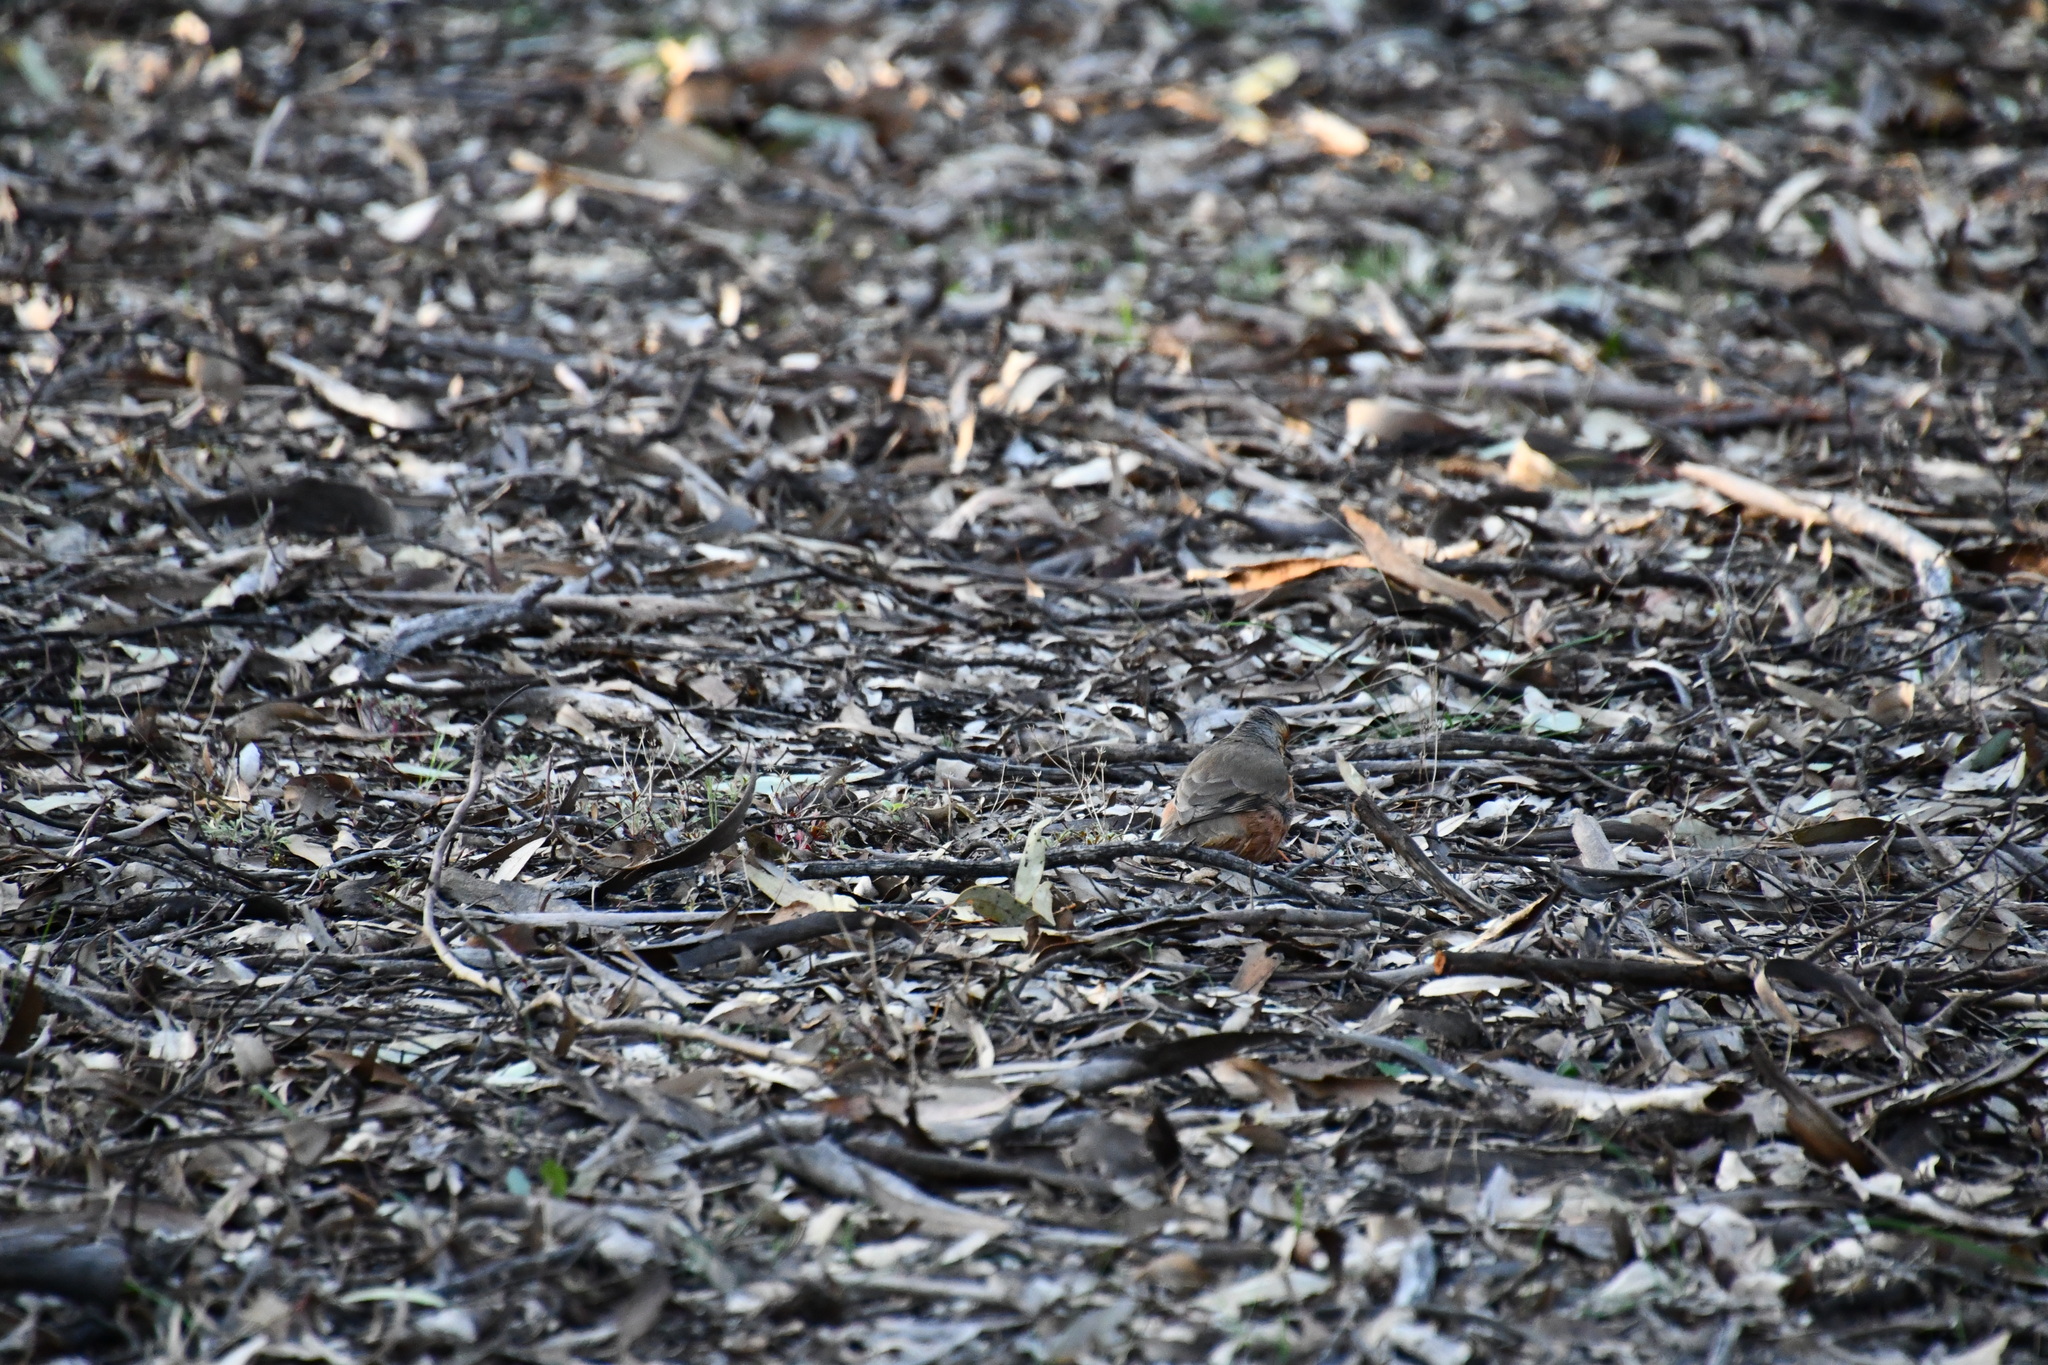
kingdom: Animalia
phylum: Chordata
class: Aves
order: Passeriformes
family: Climacteridae
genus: Climacteris
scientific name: Climacteris rufus
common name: Rufous treecreeper
